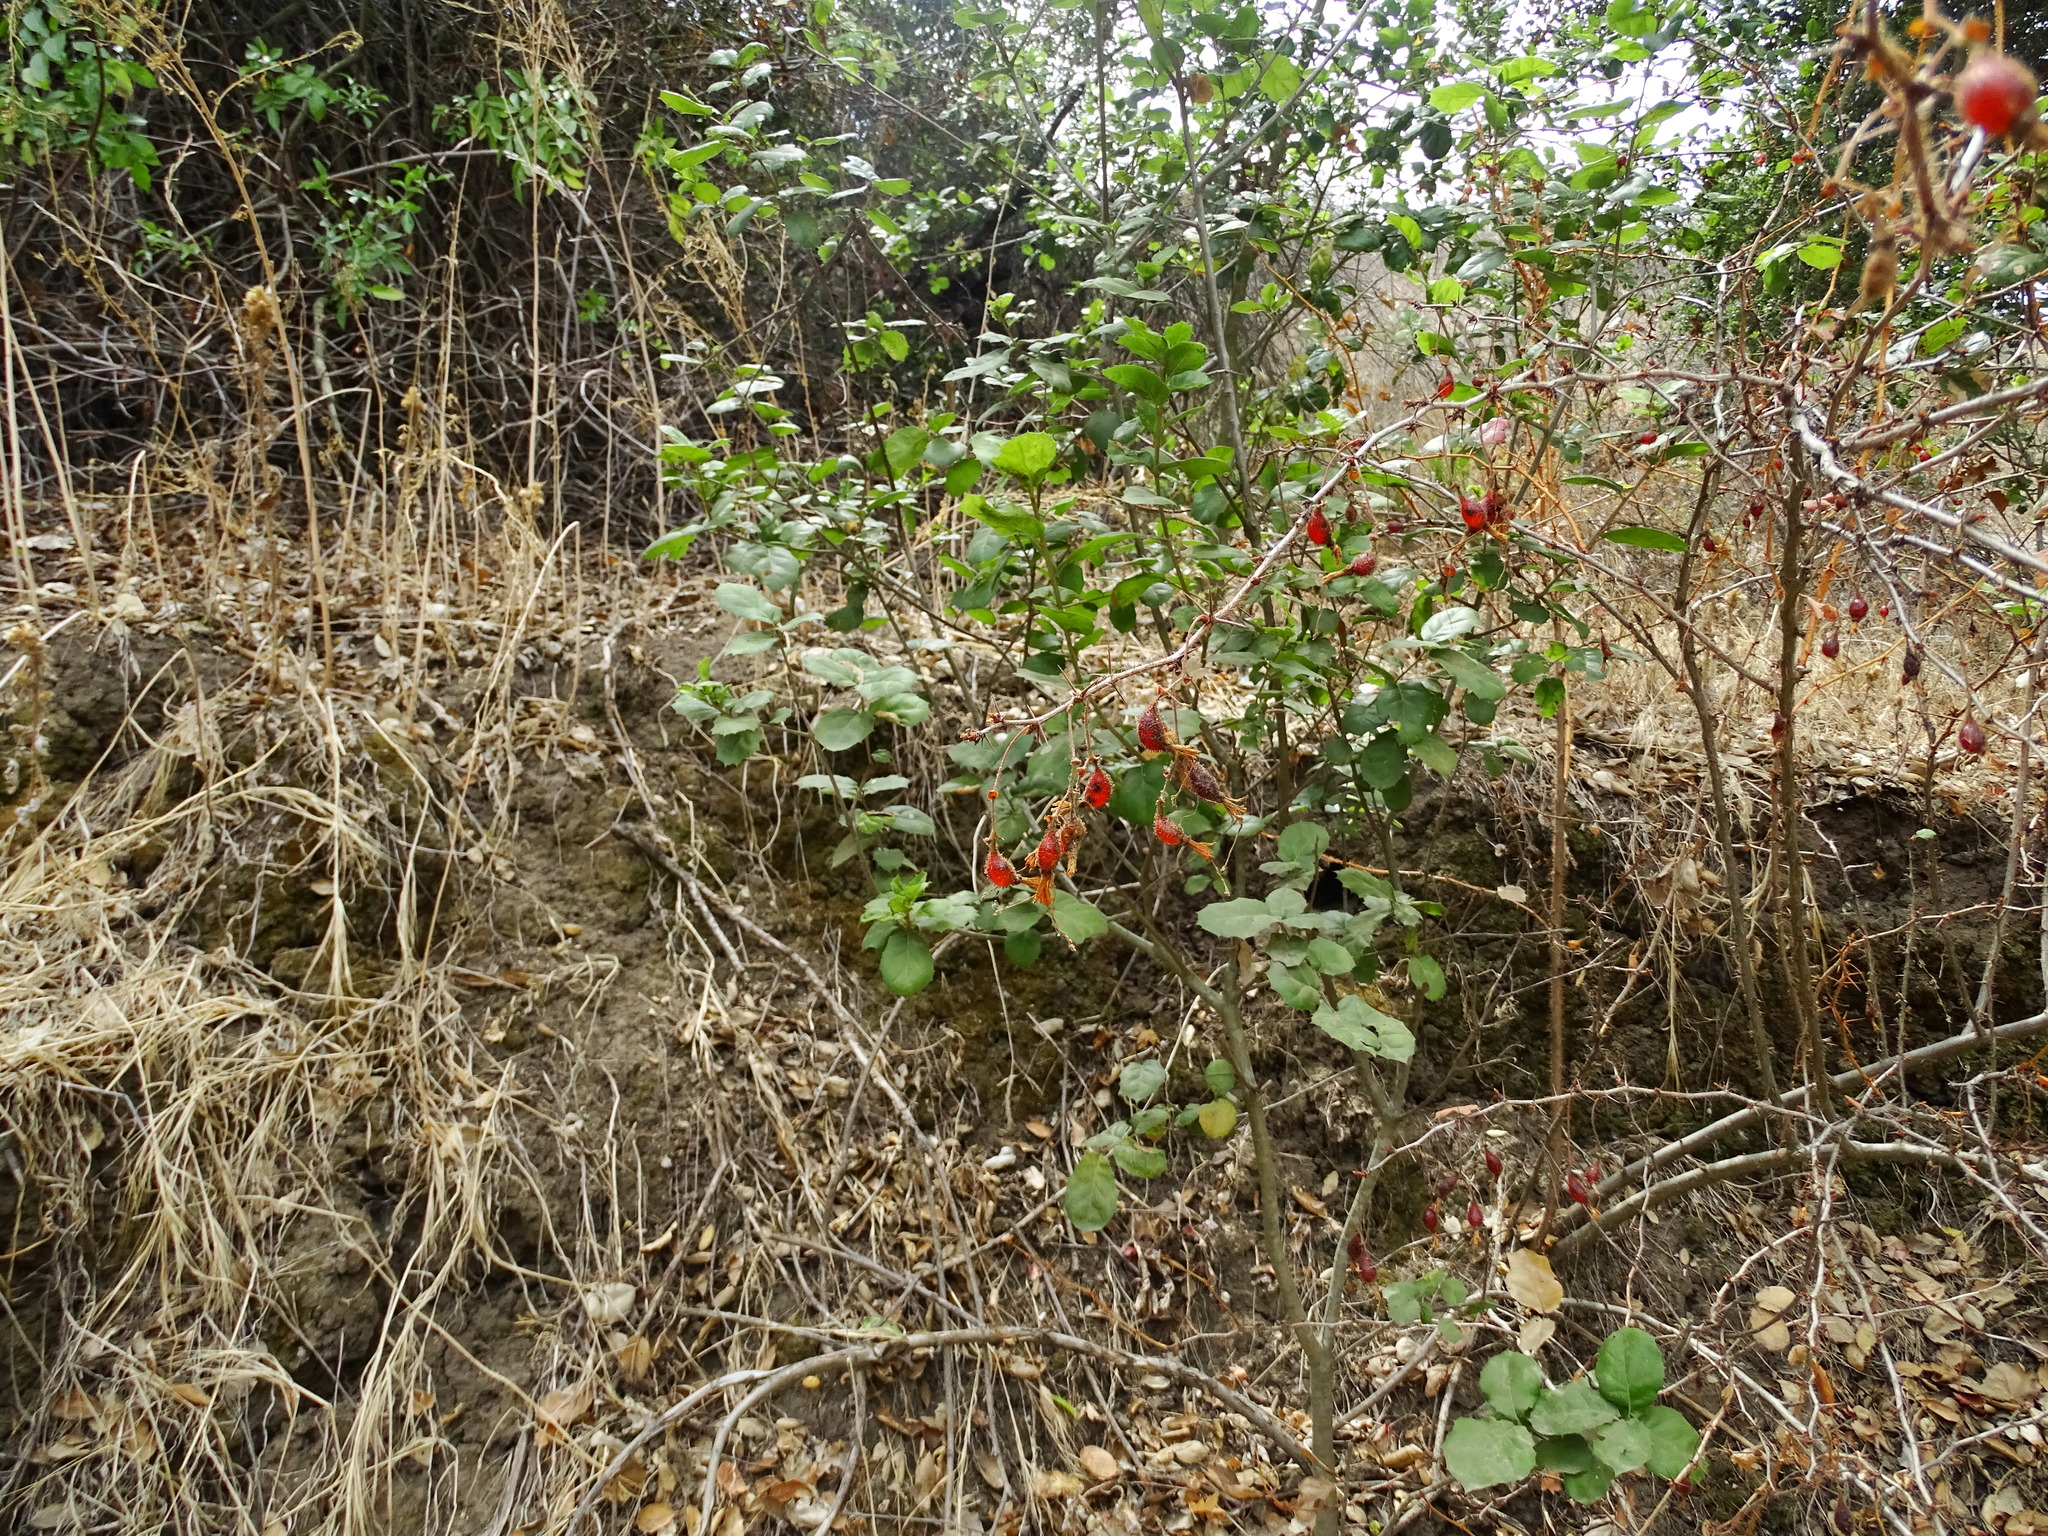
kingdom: Plantae
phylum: Tracheophyta
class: Magnoliopsida
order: Saxifragales
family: Grossulariaceae
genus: Ribes
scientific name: Ribes speciosum
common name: Fuchsia-flower gooseberry
